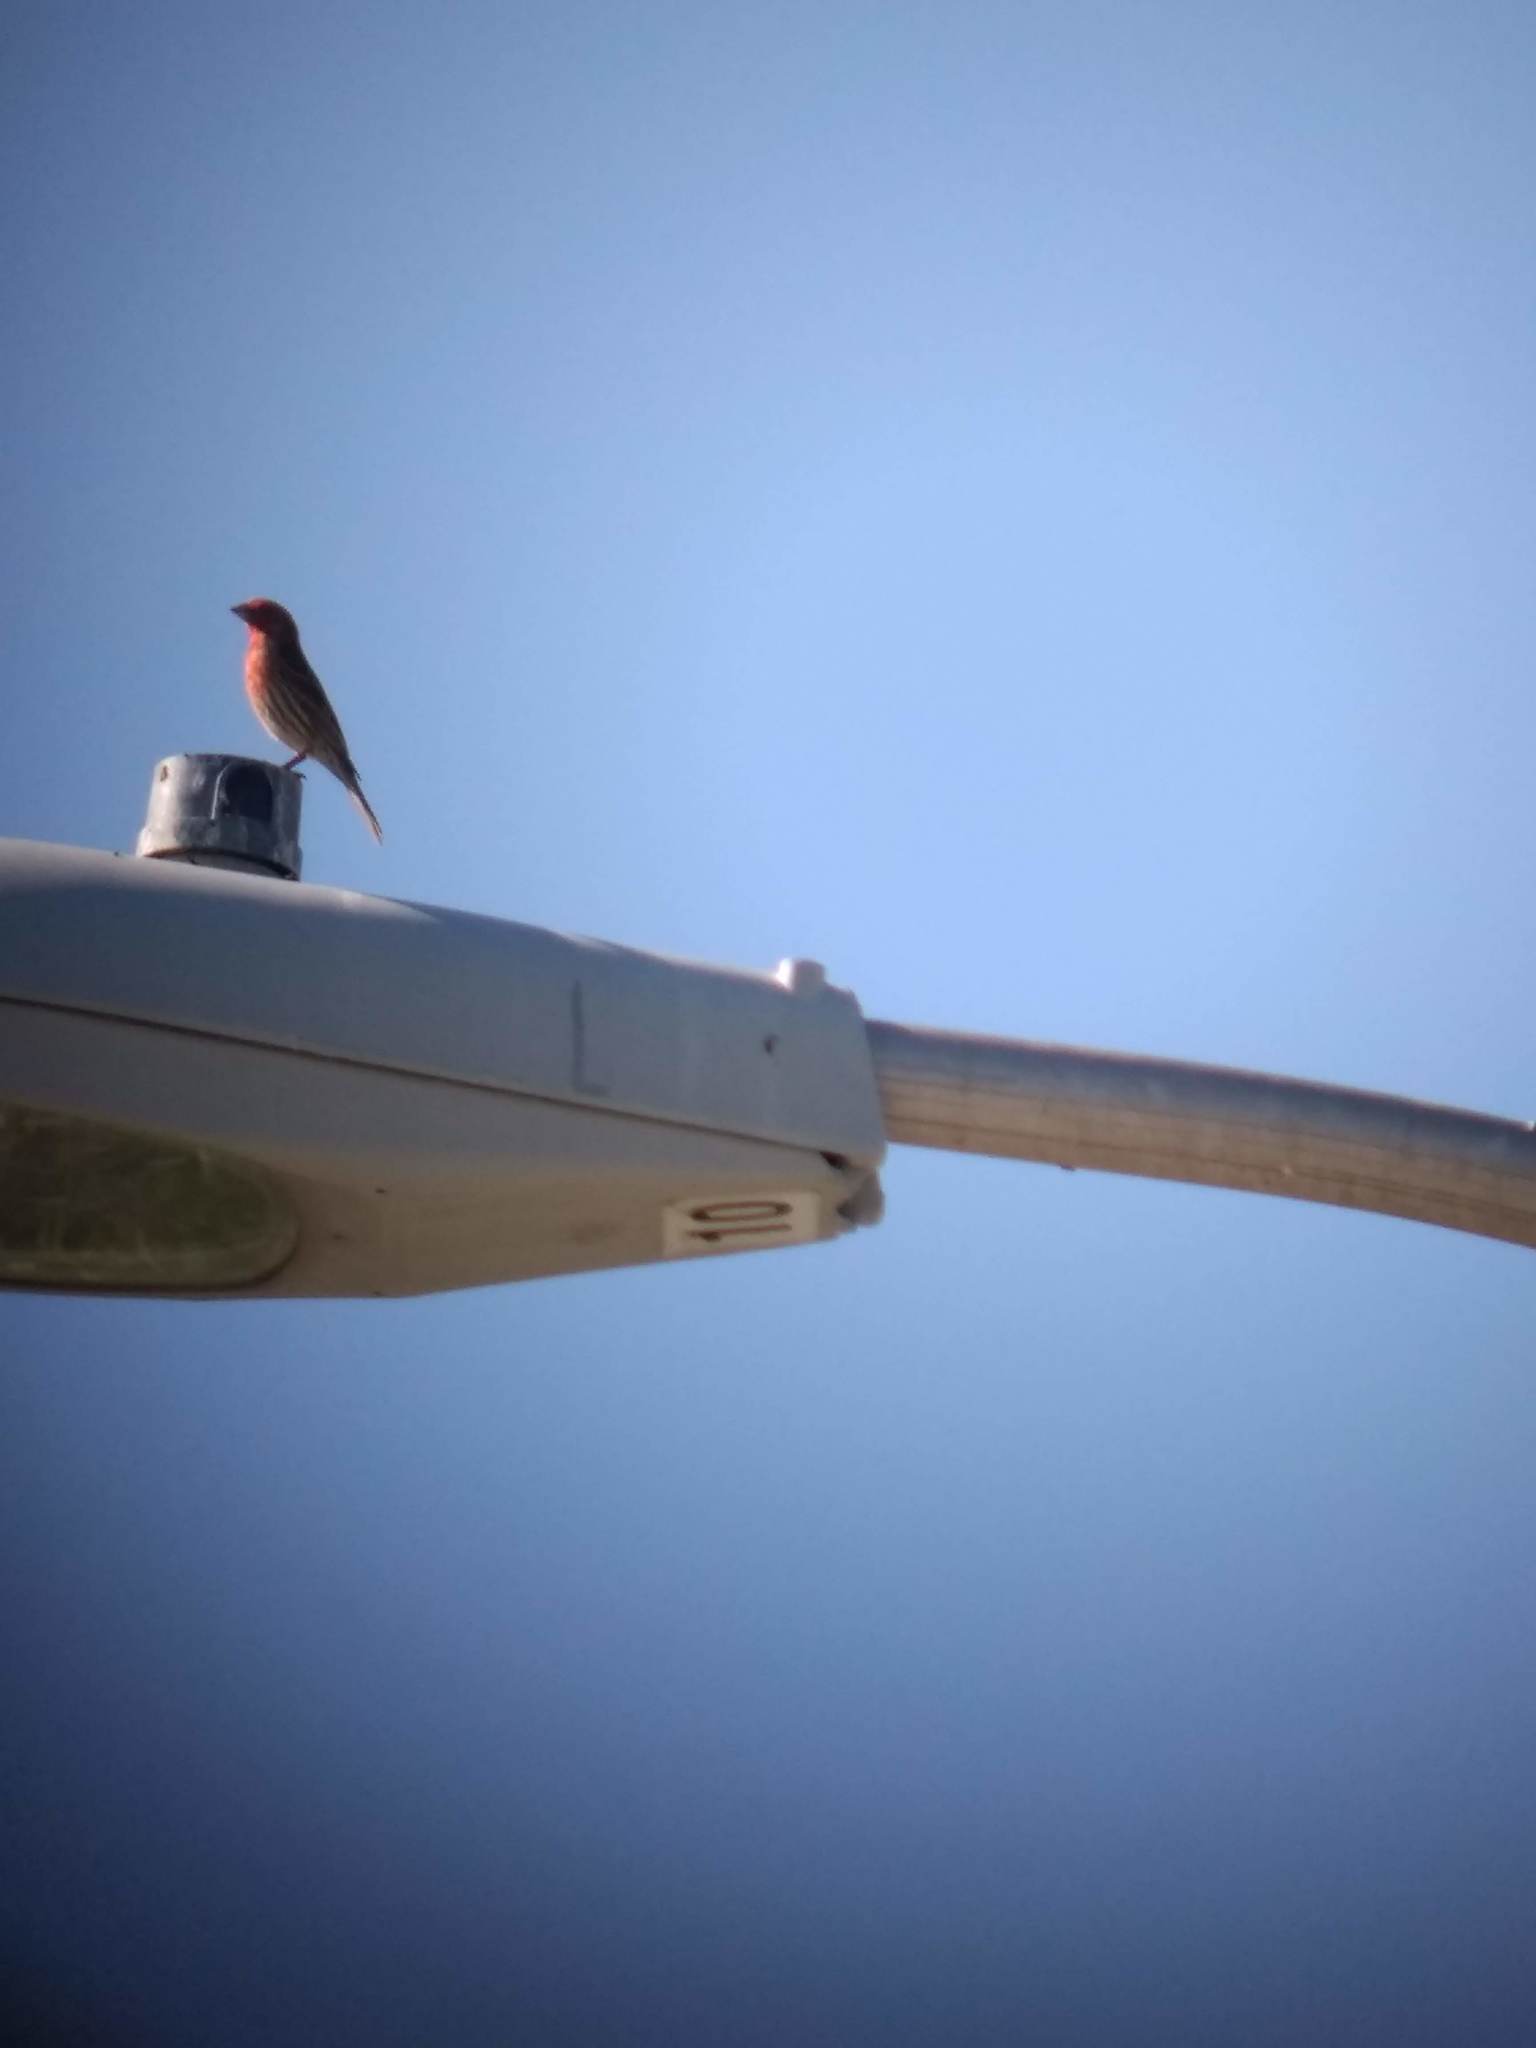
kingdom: Animalia
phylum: Chordata
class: Aves
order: Passeriformes
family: Fringillidae
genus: Haemorhous
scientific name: Haemorhous mexicanus
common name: House finch
